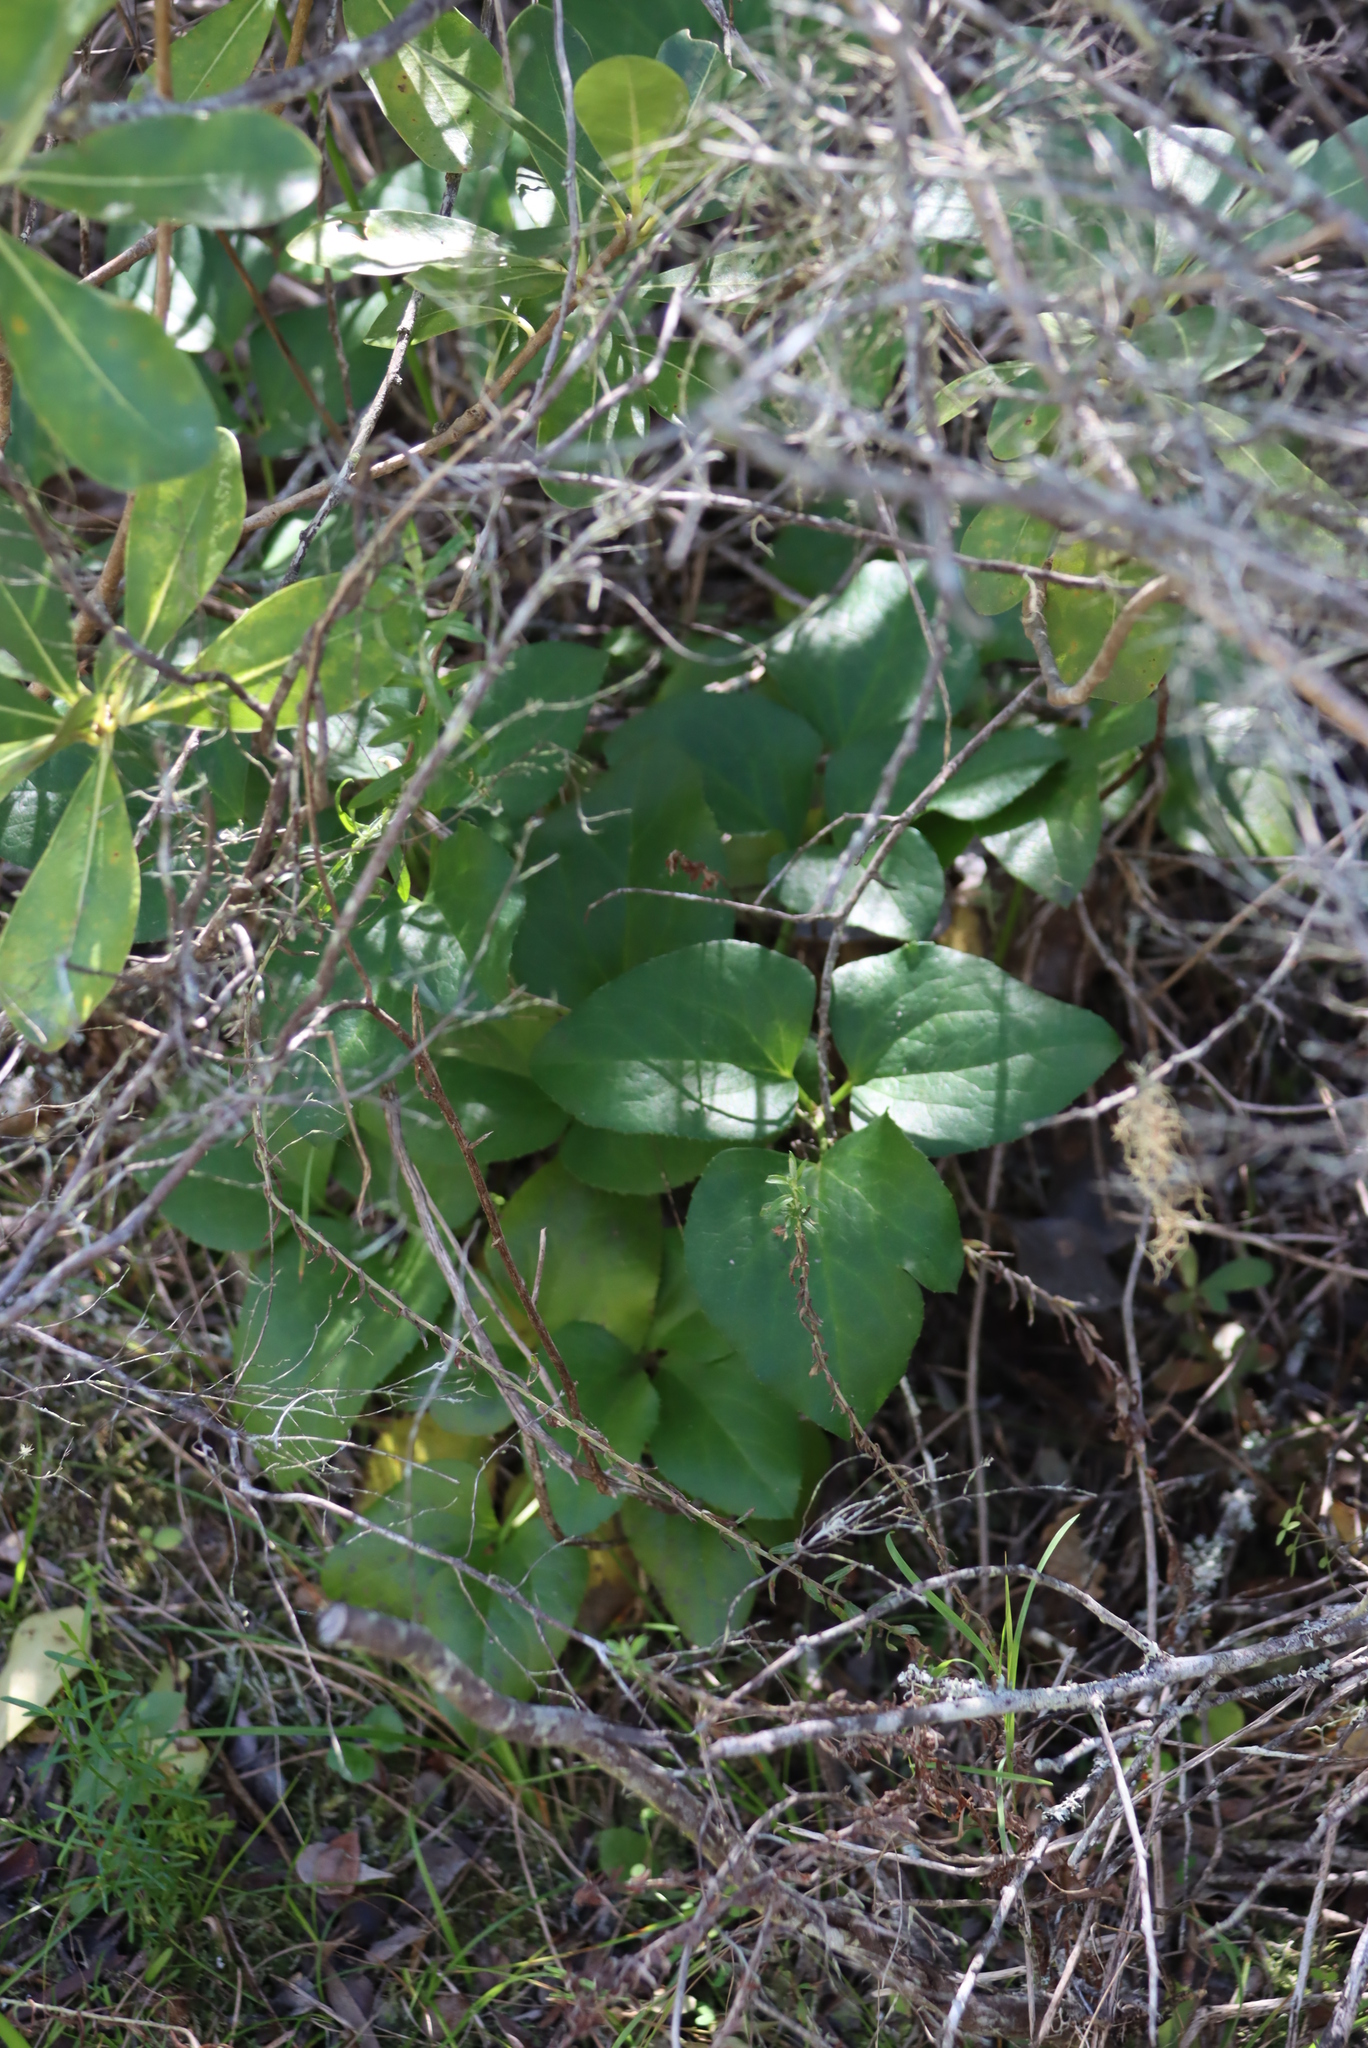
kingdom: Plantae
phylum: Tracheophyta
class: Magnoliopsida
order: Ranunculales
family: Ranunculaceae
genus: Knowltonia
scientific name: Knowltonia vesicatoria
